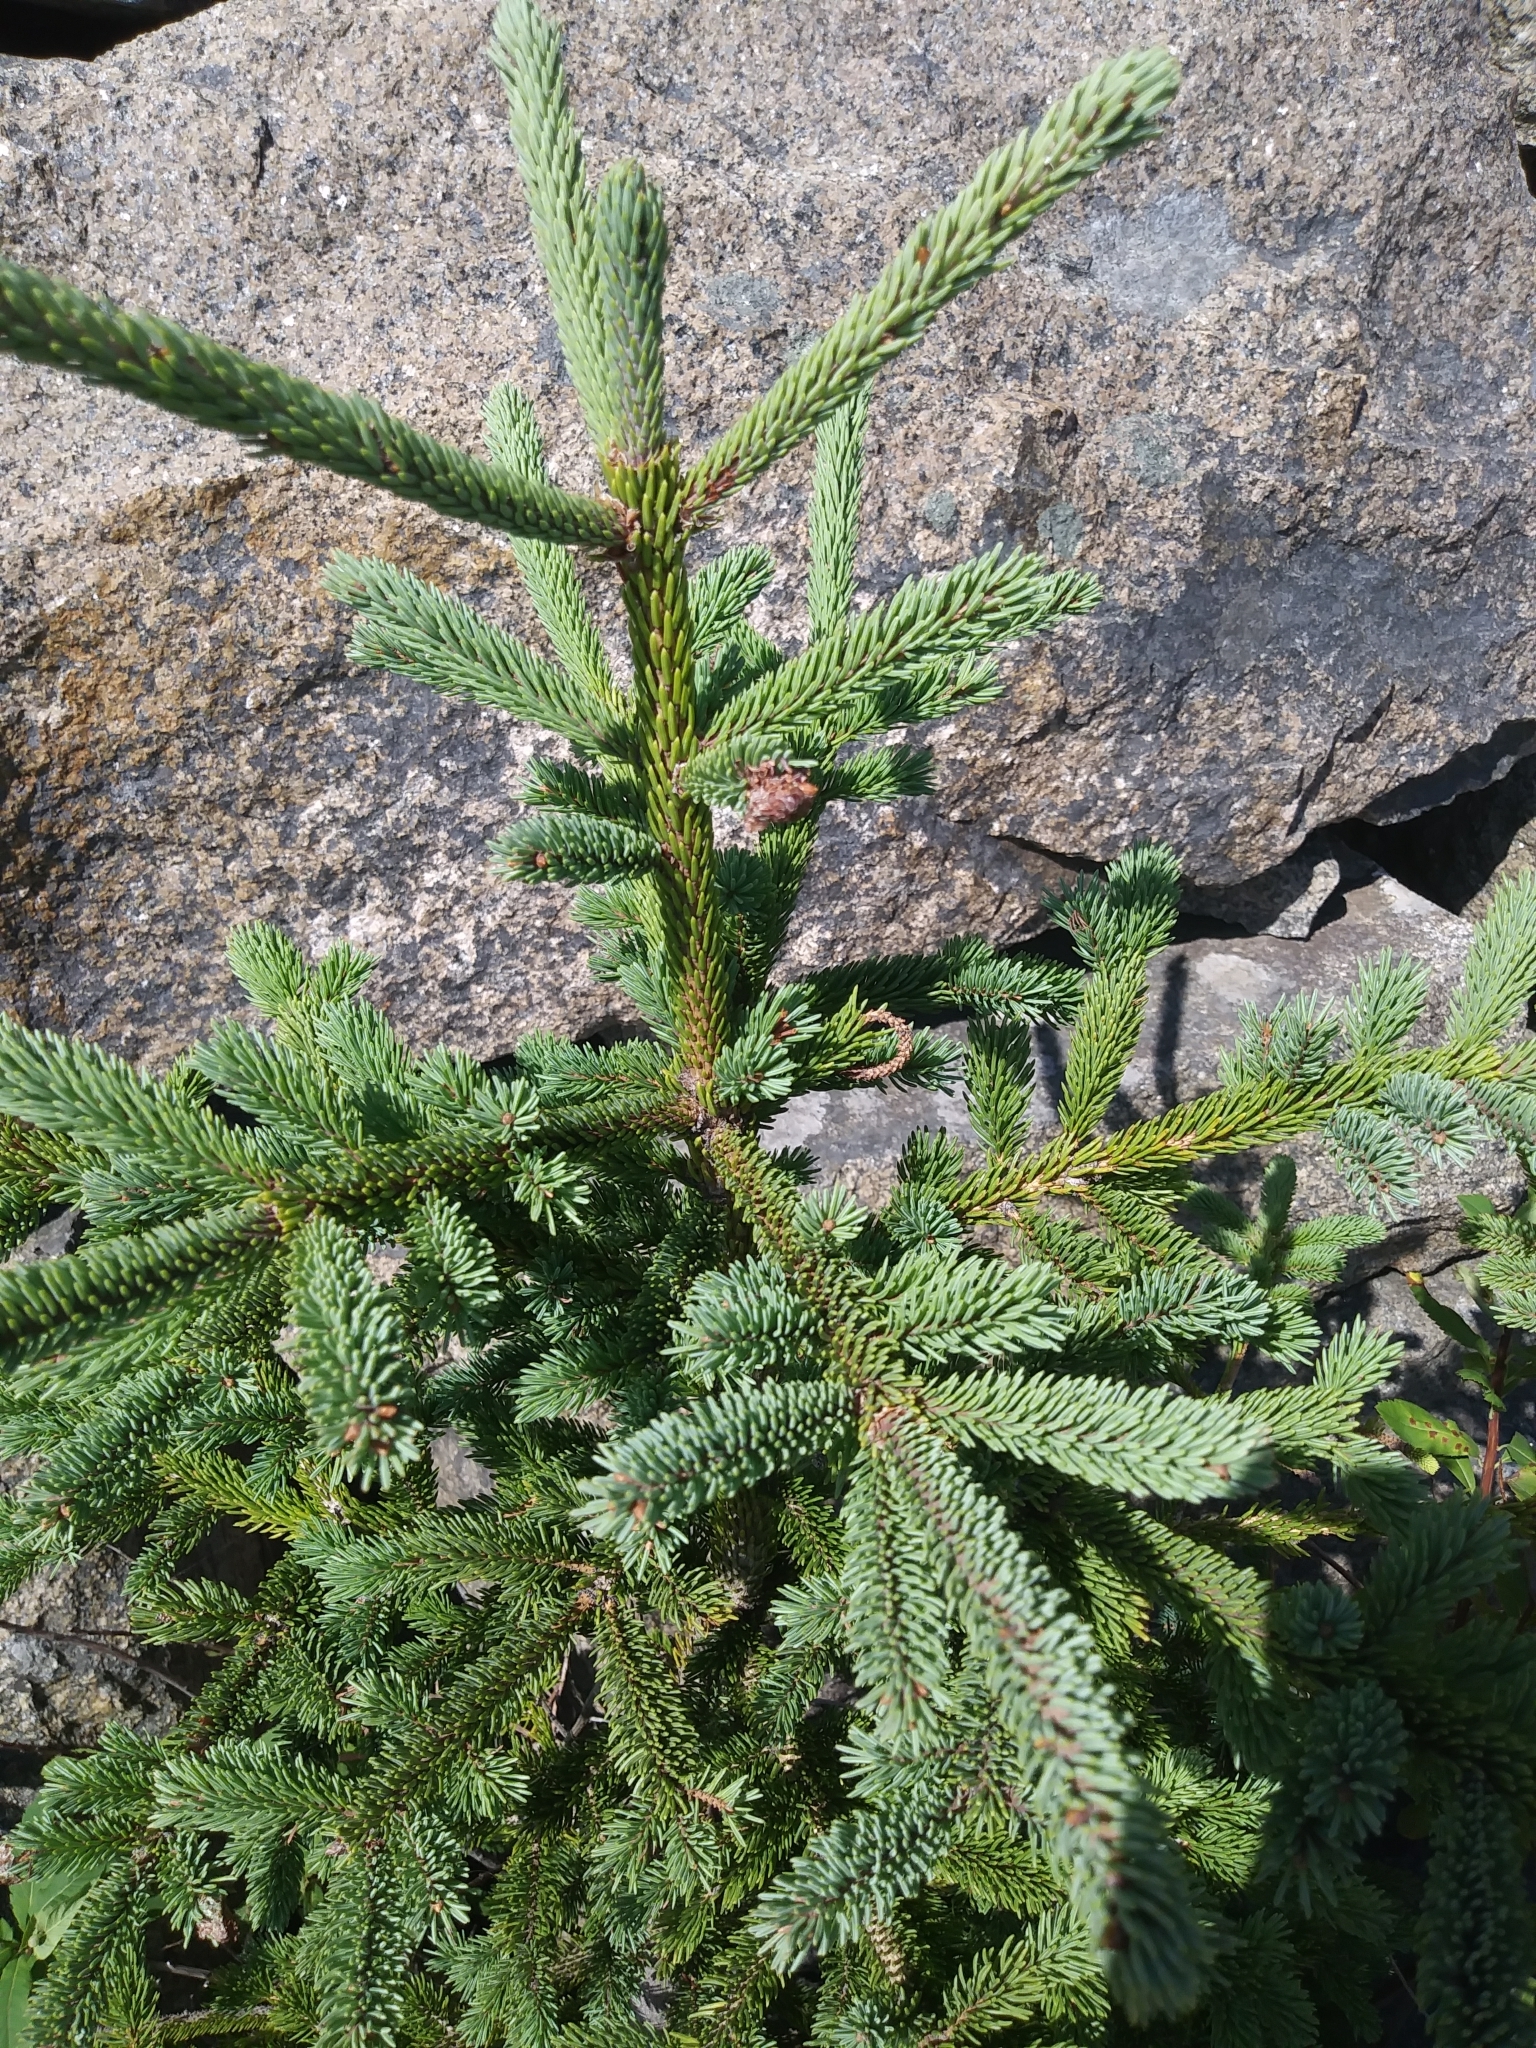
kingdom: Plantae
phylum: Tracheophyta
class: Pinopsida
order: Pinales
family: Pinaceae
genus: Picea
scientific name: Picea glauca
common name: White spruce
